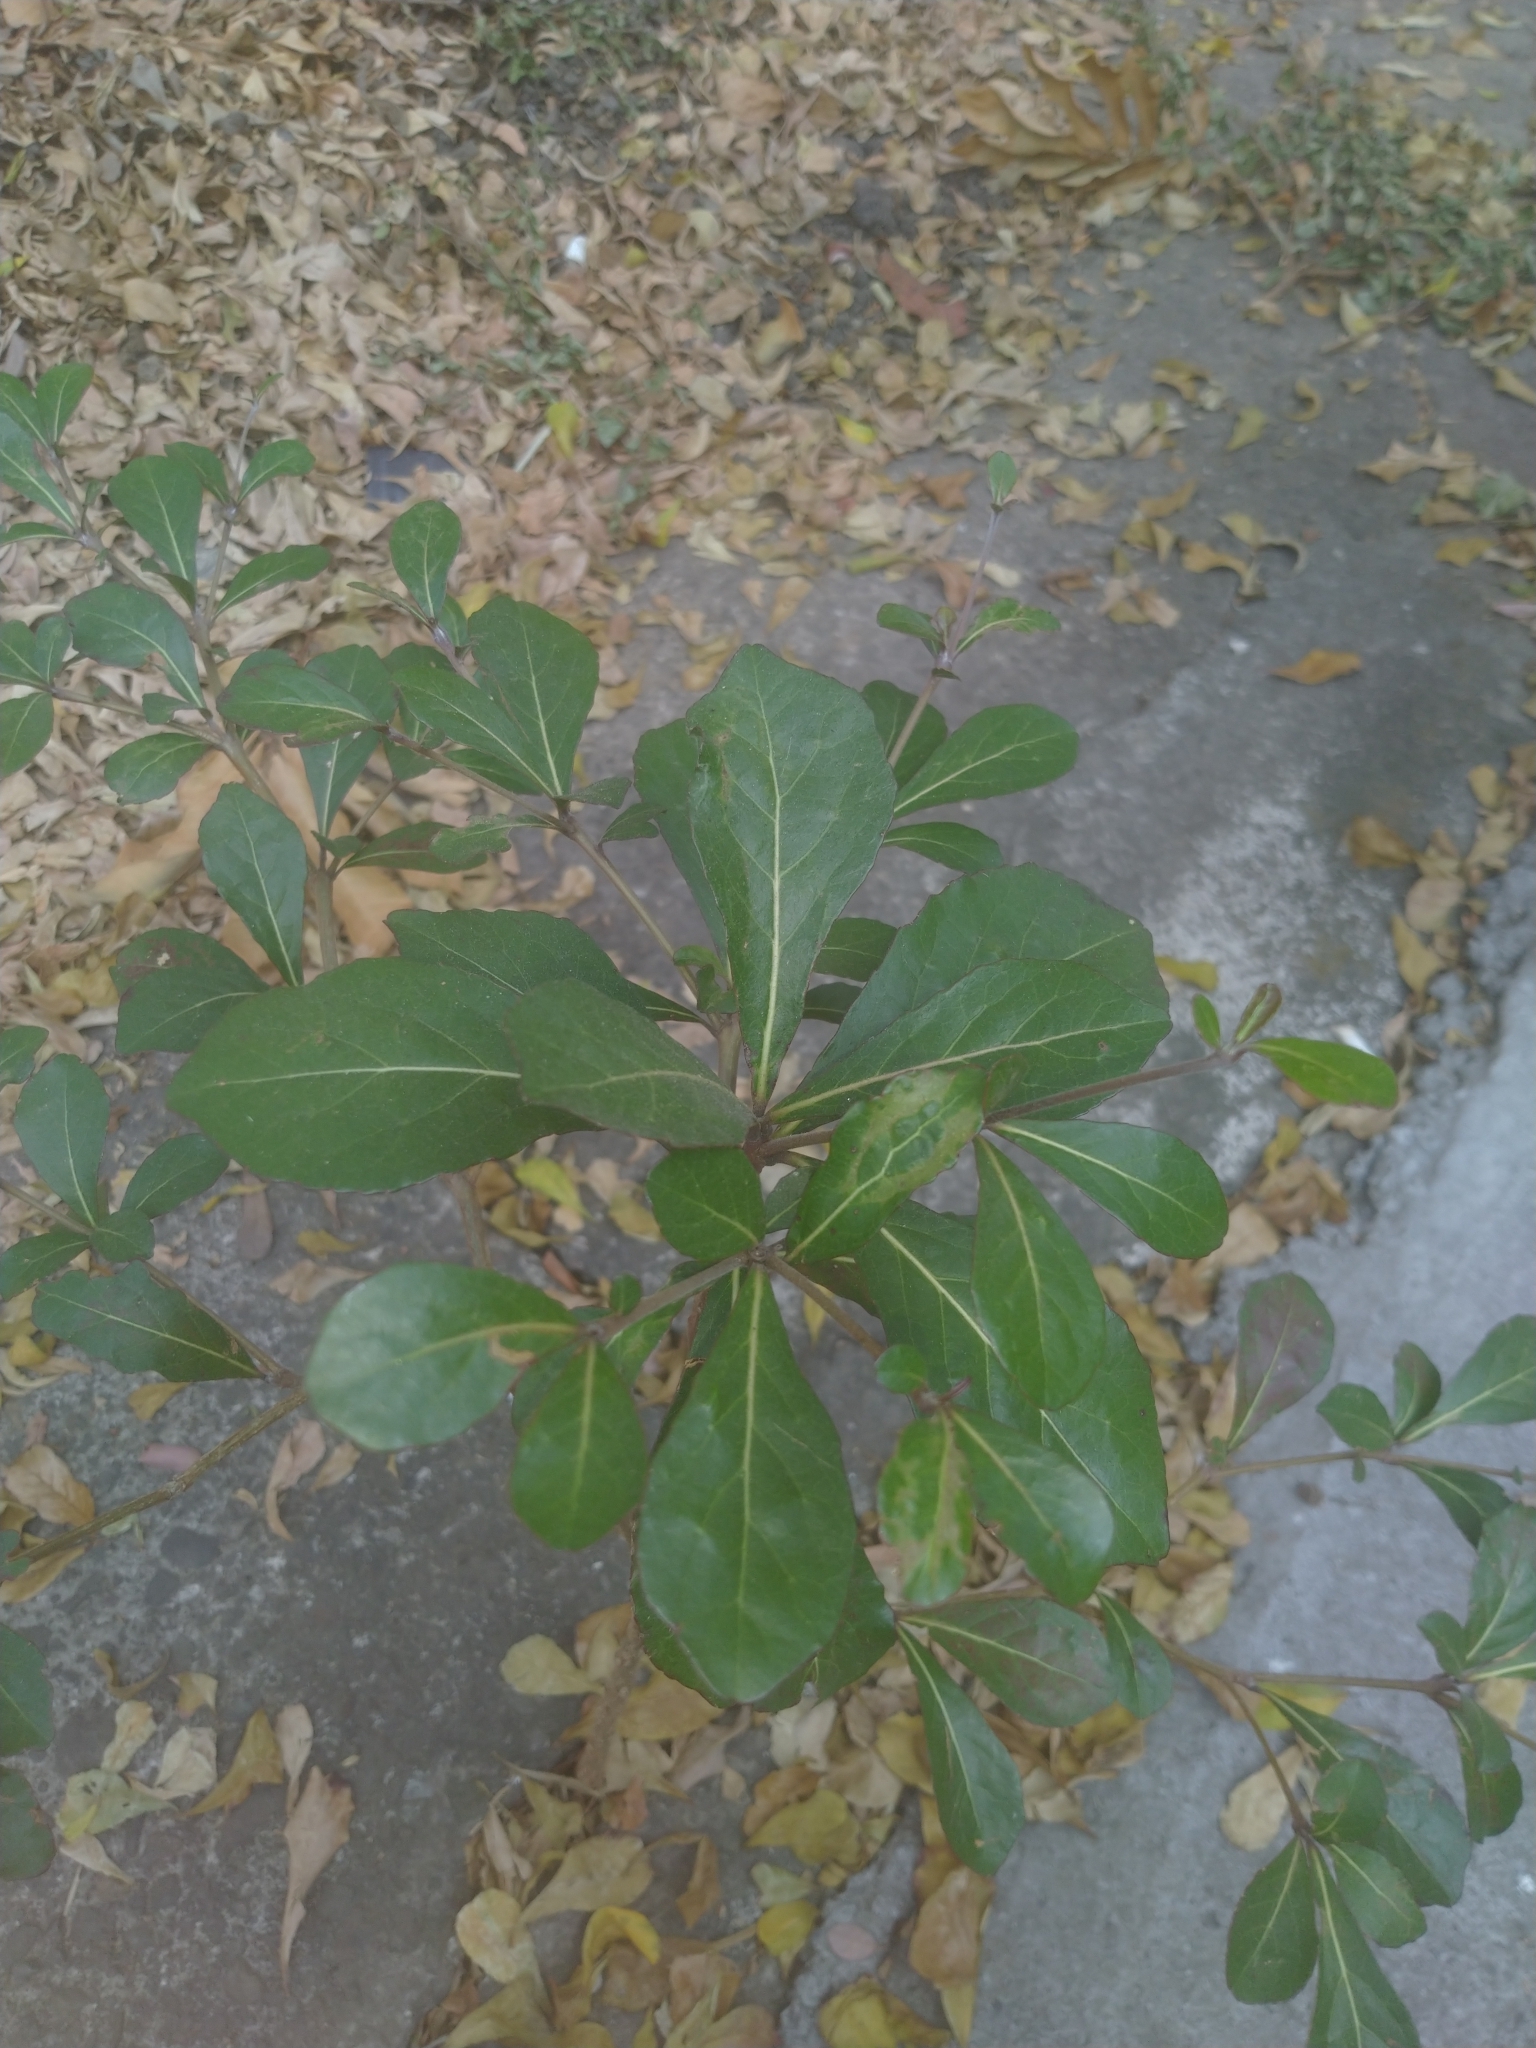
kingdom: Plantae
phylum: Tracheophyta
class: Magnoliopsida
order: Myrtales
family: Combretaceae
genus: Terminalia
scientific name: Terminalia neotaliala
